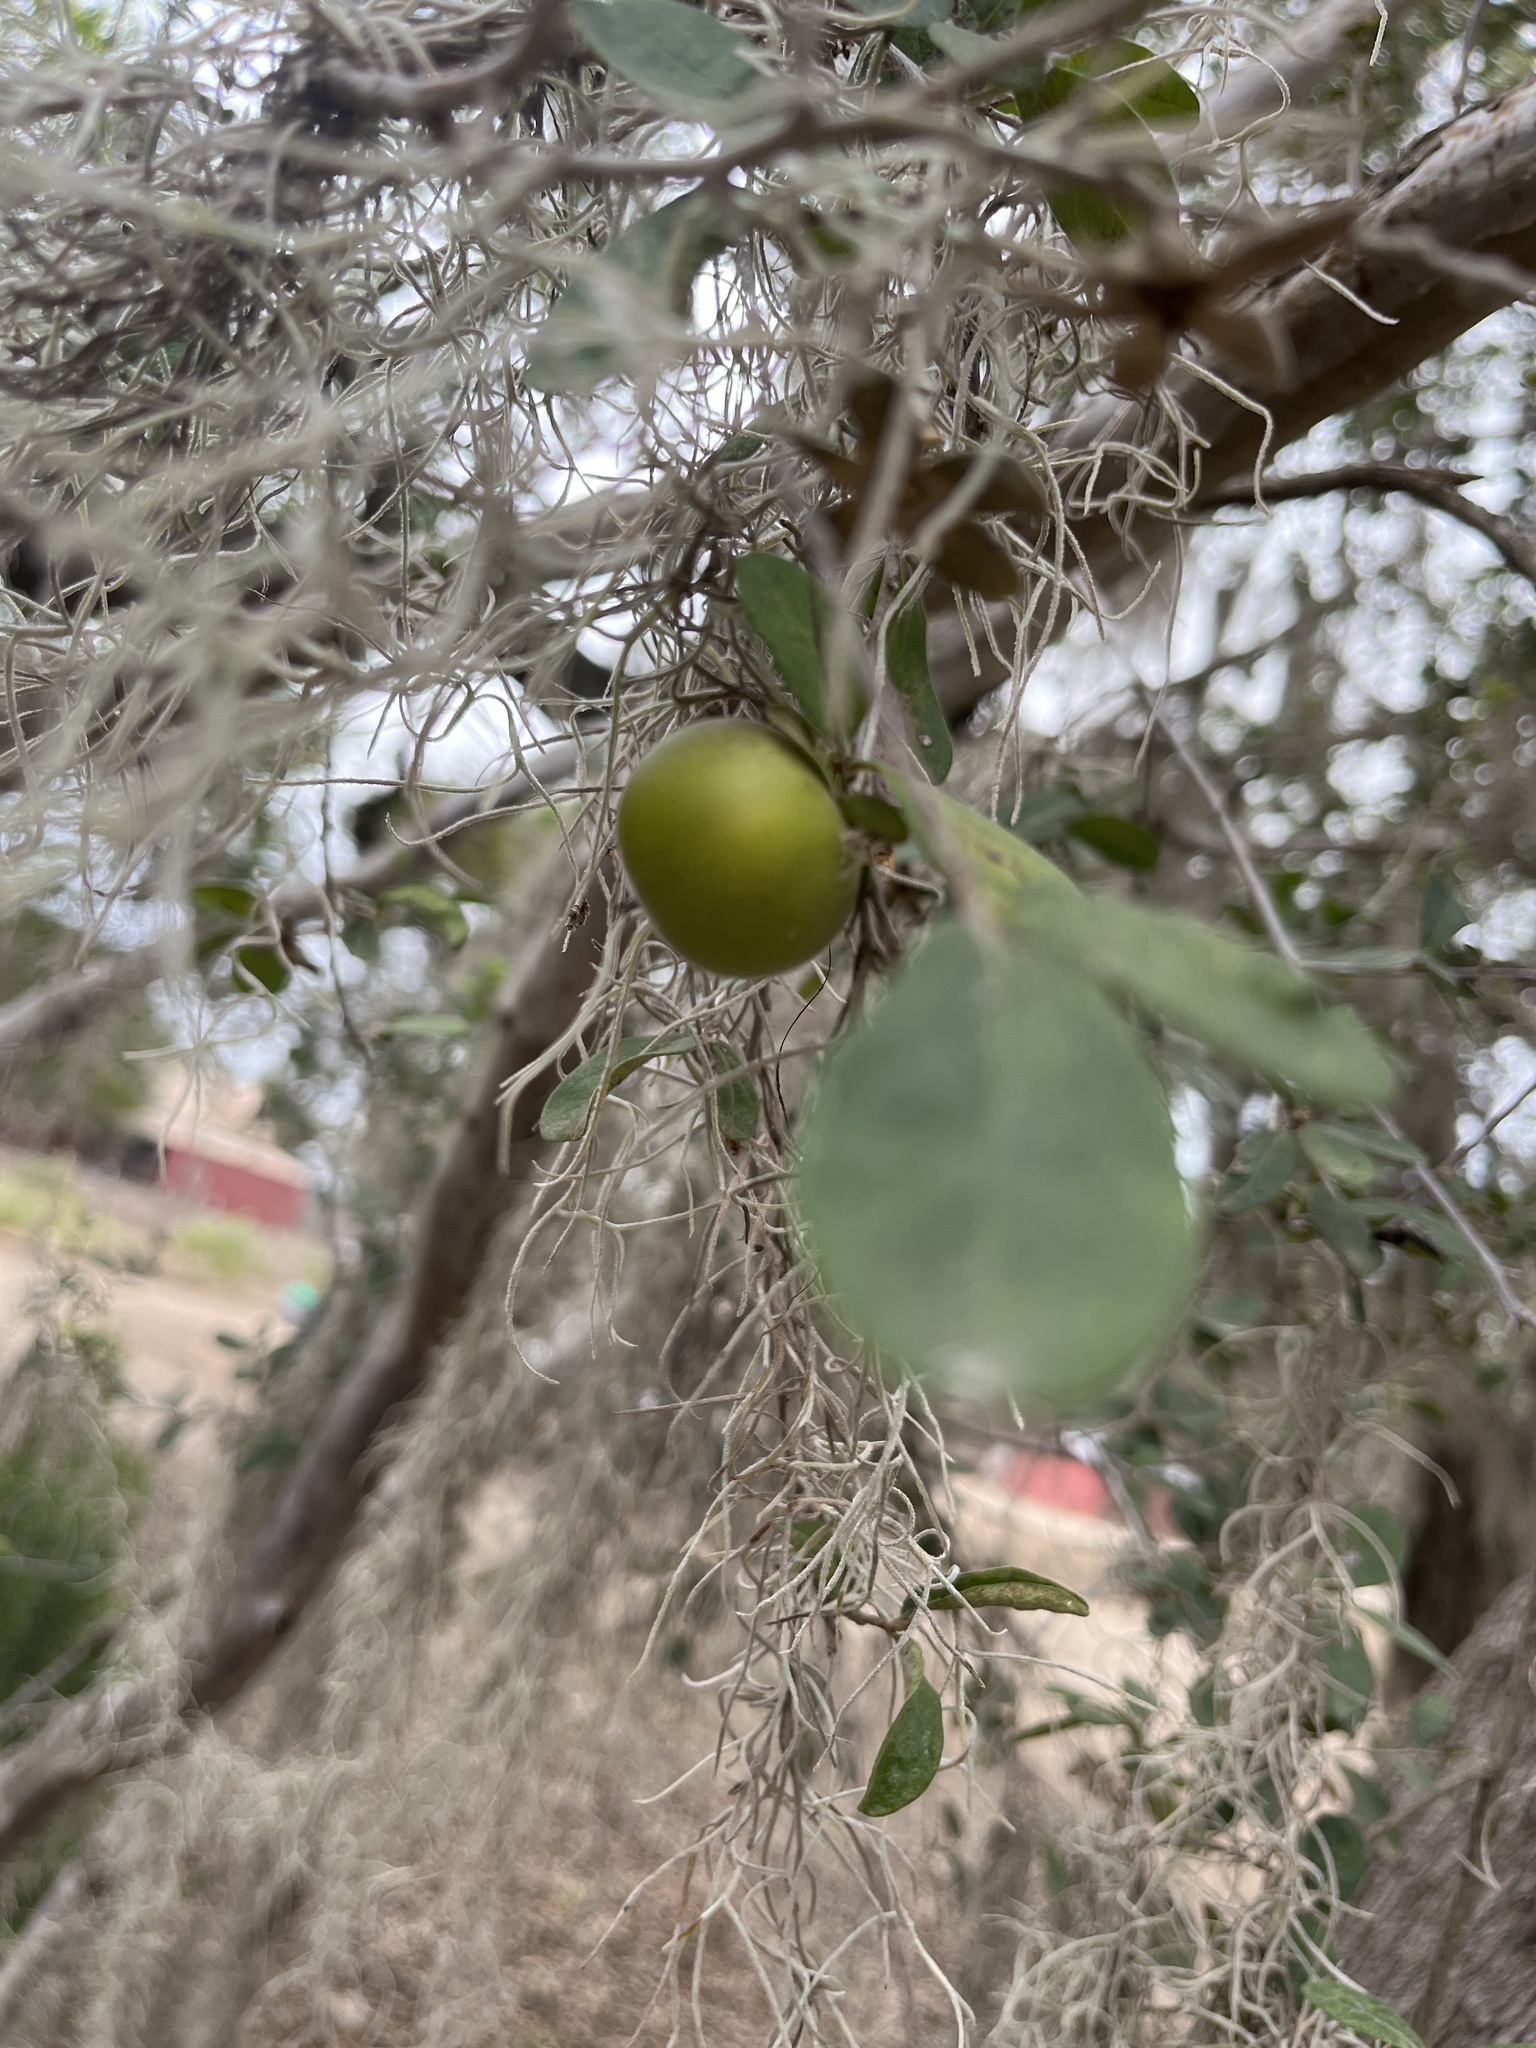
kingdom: Plantae
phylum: Tracheophyta
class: Magnoliopsida
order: Ericales
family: Ebenaceae
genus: Diospyros
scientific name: Diospyros texana
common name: Texas persimmon
